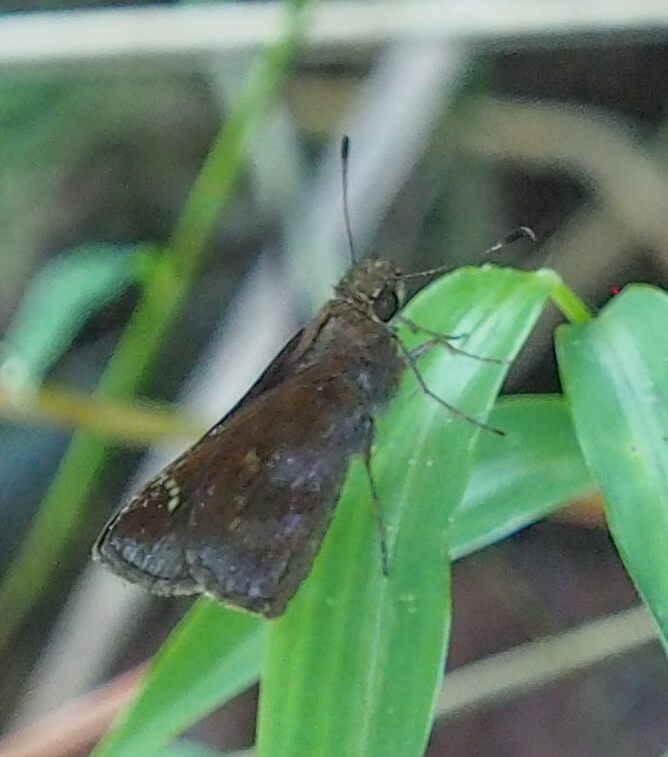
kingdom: Animalia
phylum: Arthropoda
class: Insecta
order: Lepidoptera
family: Hesperiidae
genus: Lerema
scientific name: Lerema accius
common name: Clouded skipper
